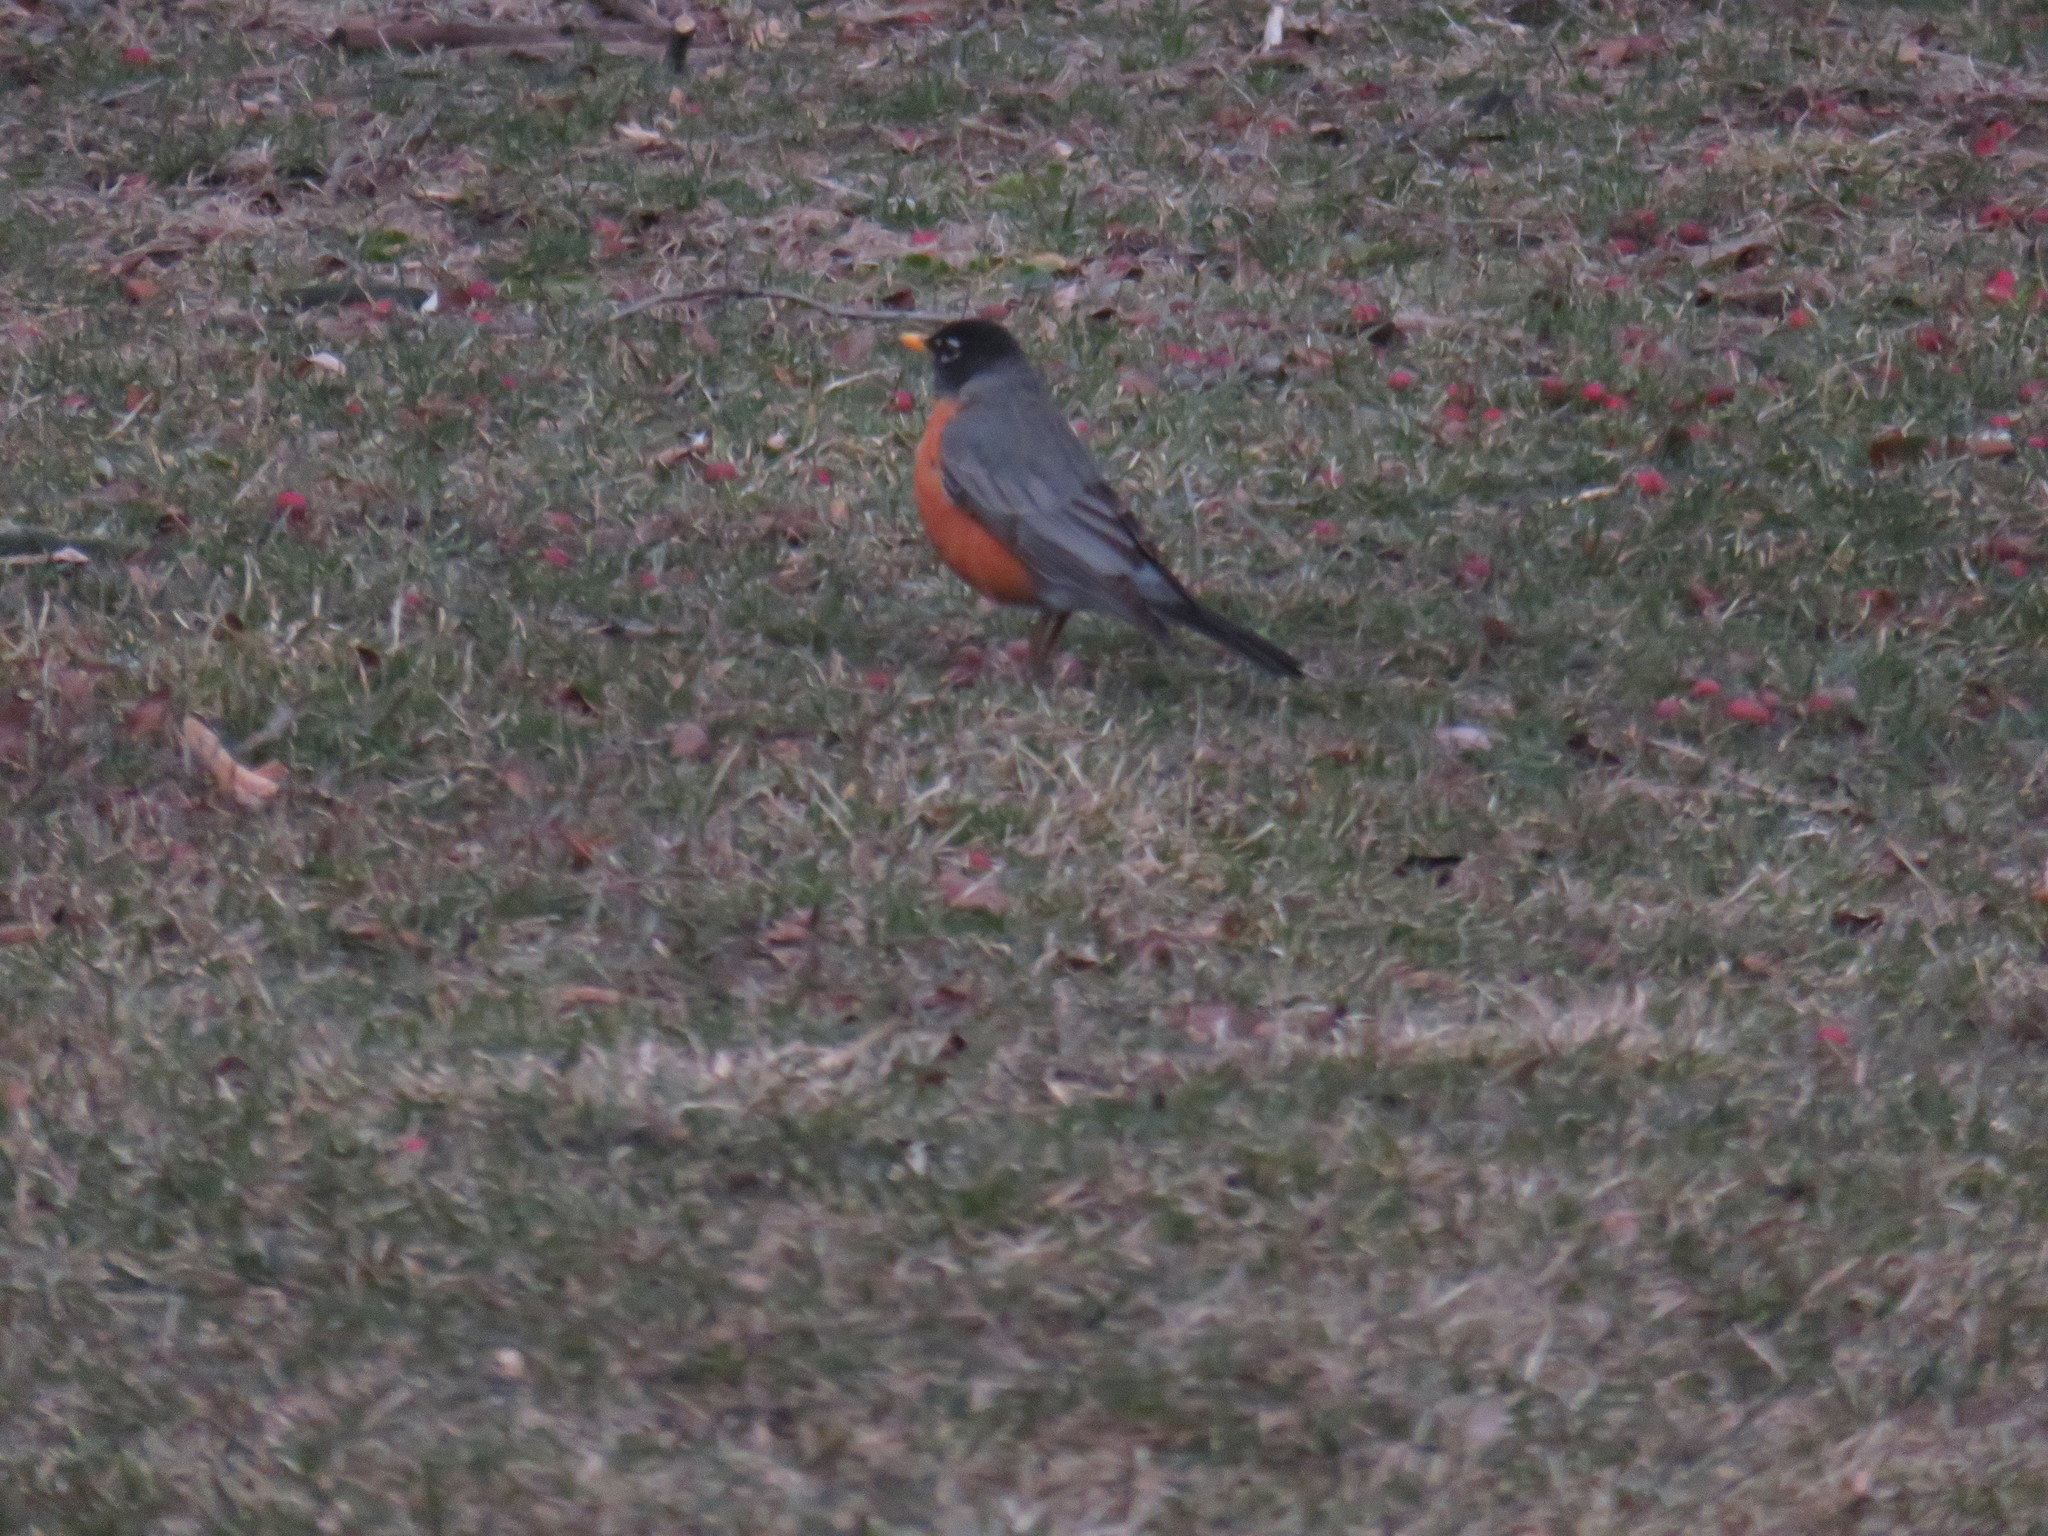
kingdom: Animalia
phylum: Chordata
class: Aves
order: Passeriformes
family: Turdidae
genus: Turdus
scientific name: Turdus migratorius
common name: American robin
